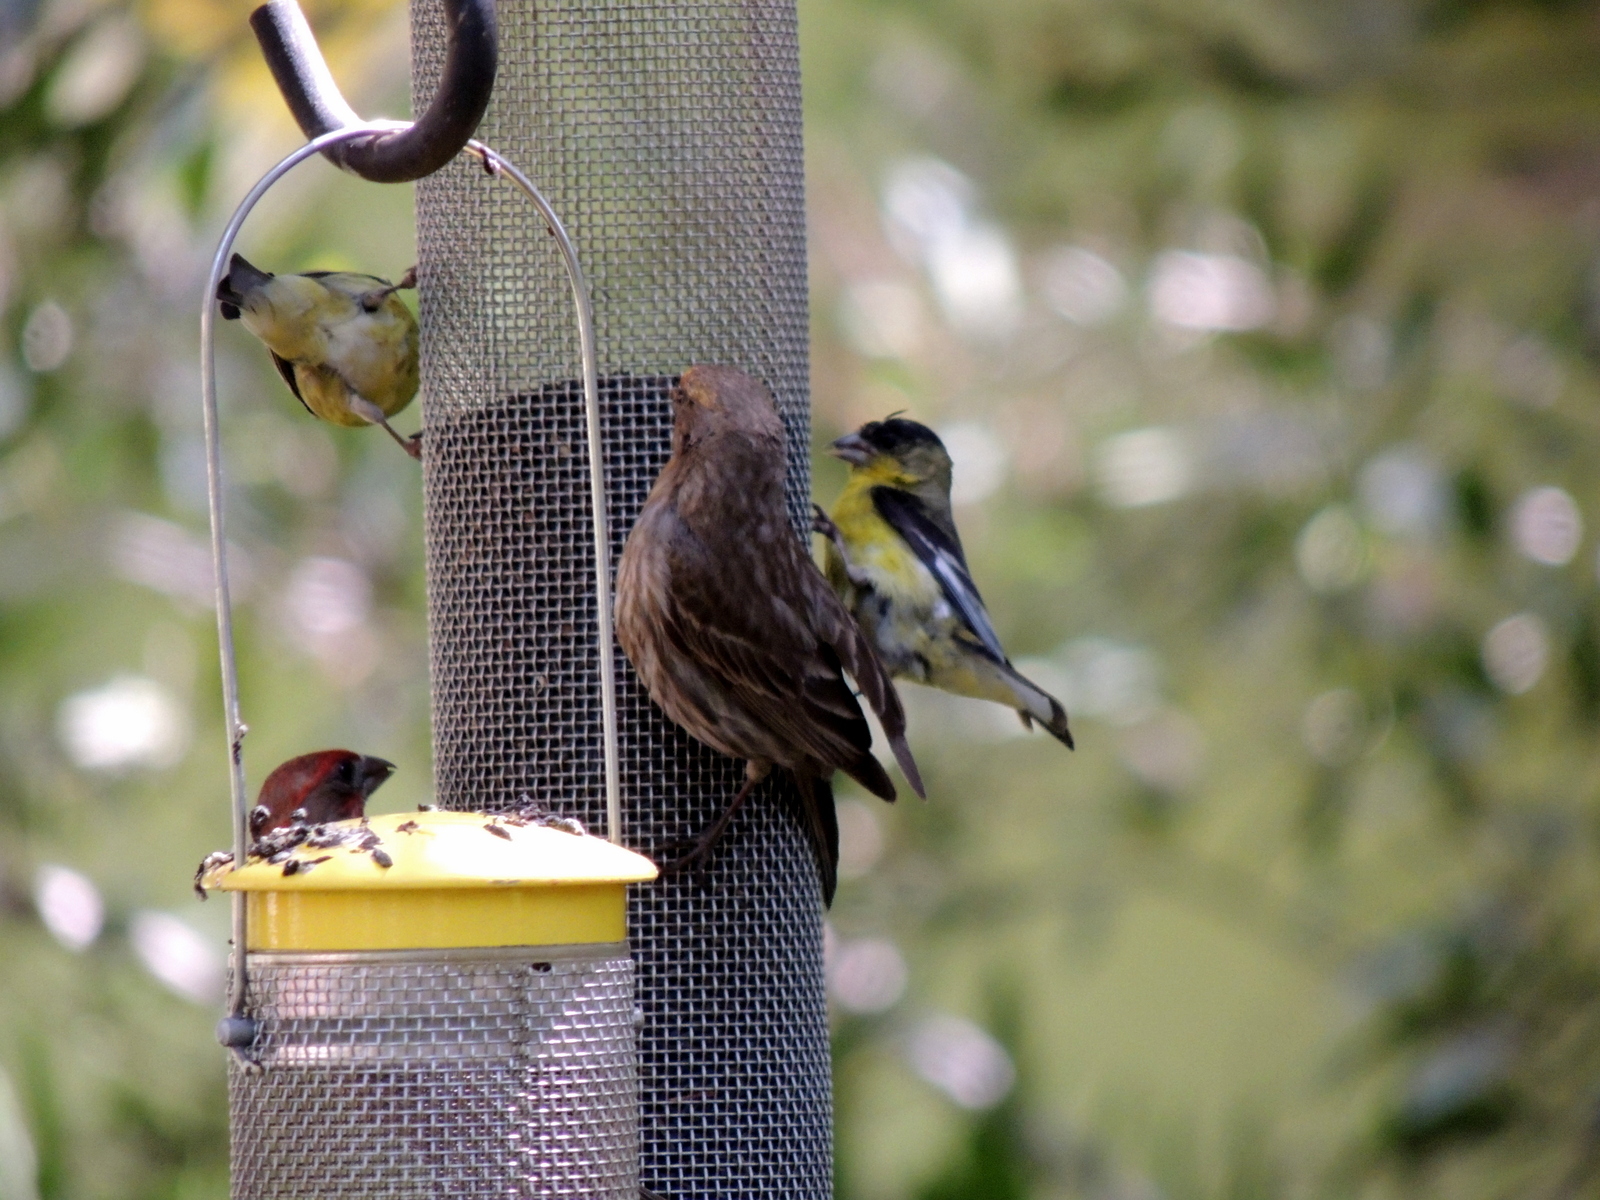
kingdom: Animalia
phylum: Chordata
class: Aves
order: Passeriformes
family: Fringillidae
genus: Haemorhous
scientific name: Haemorhous mexicanus
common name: House finch
